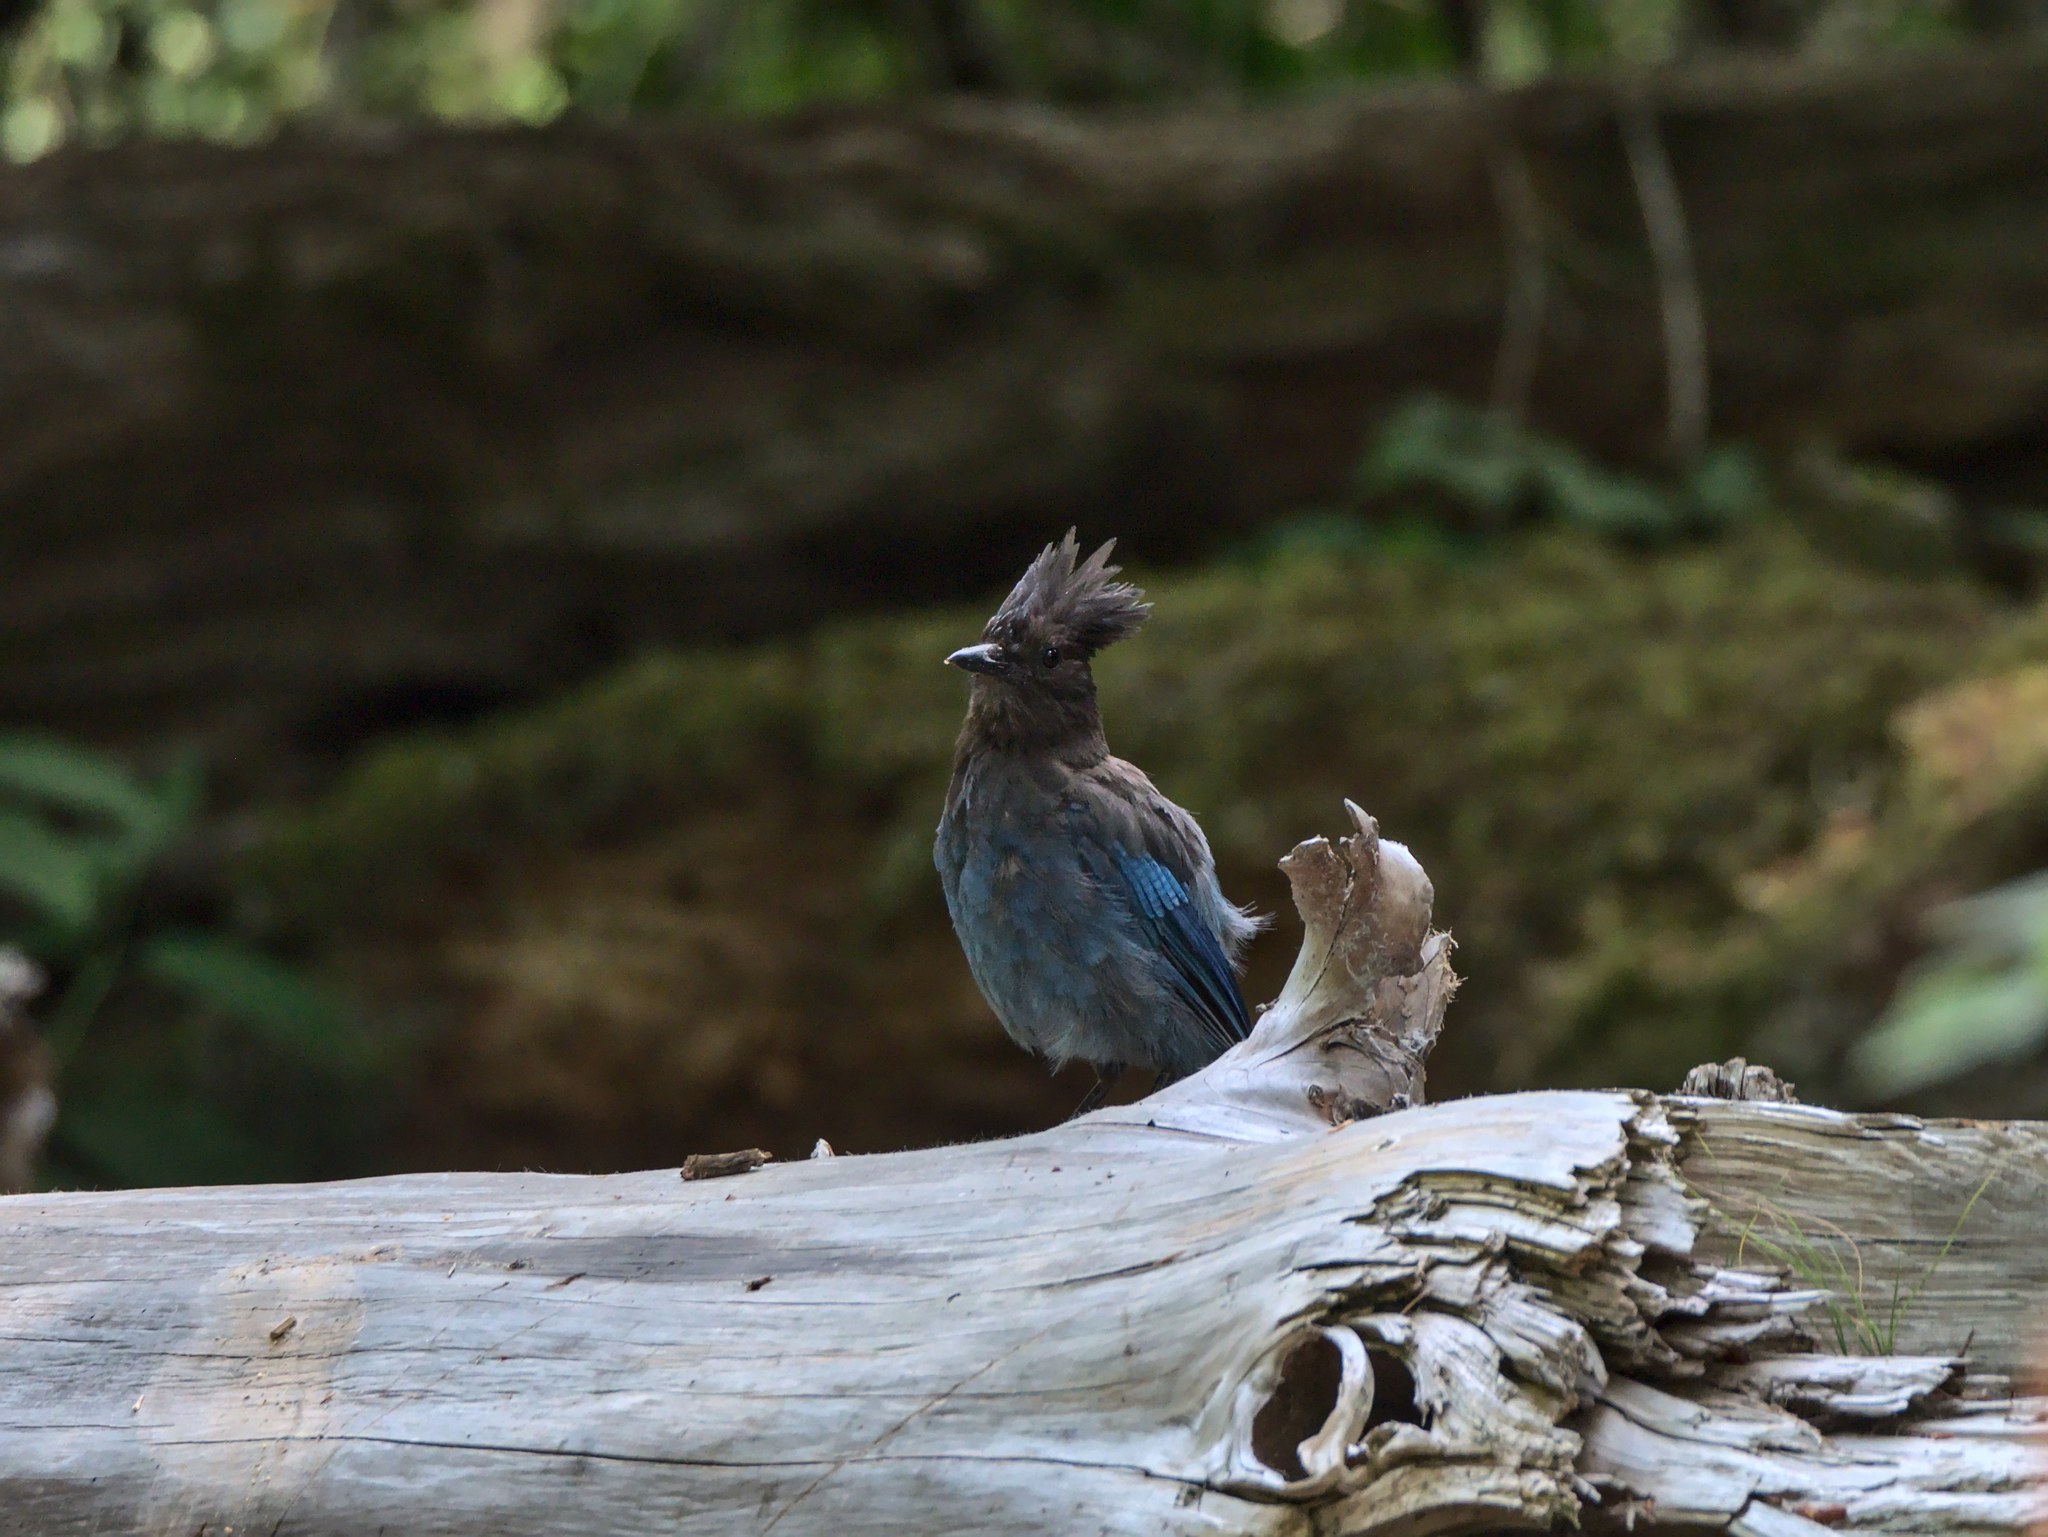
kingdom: Animalia
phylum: Chordata
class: Aves
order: Passeriformes
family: Corvidae
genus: Cyanocitta
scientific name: Cyanocitta stelleri
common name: Steller's jay
